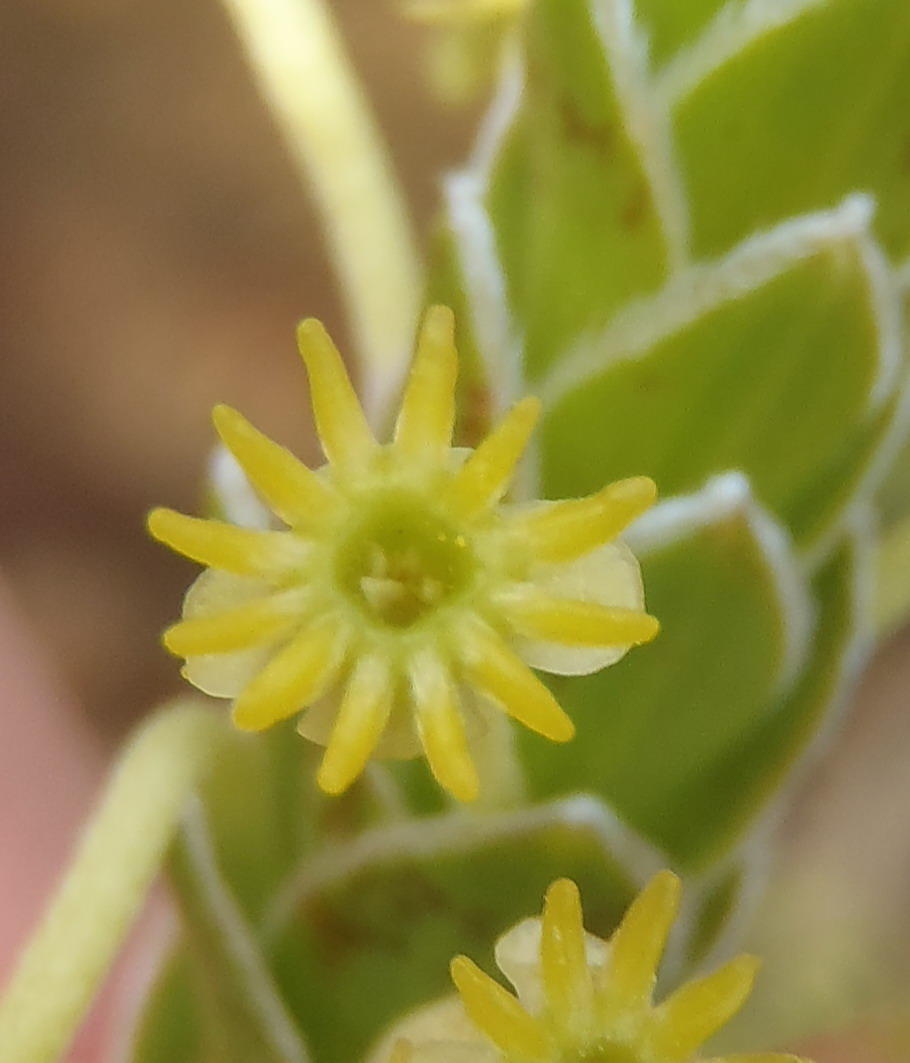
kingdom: Plantae
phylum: Tracheophyta
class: Magnoliopsida
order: Malvales
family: Thymelaeaceae
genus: Struthiola
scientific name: Struthiola argentea
